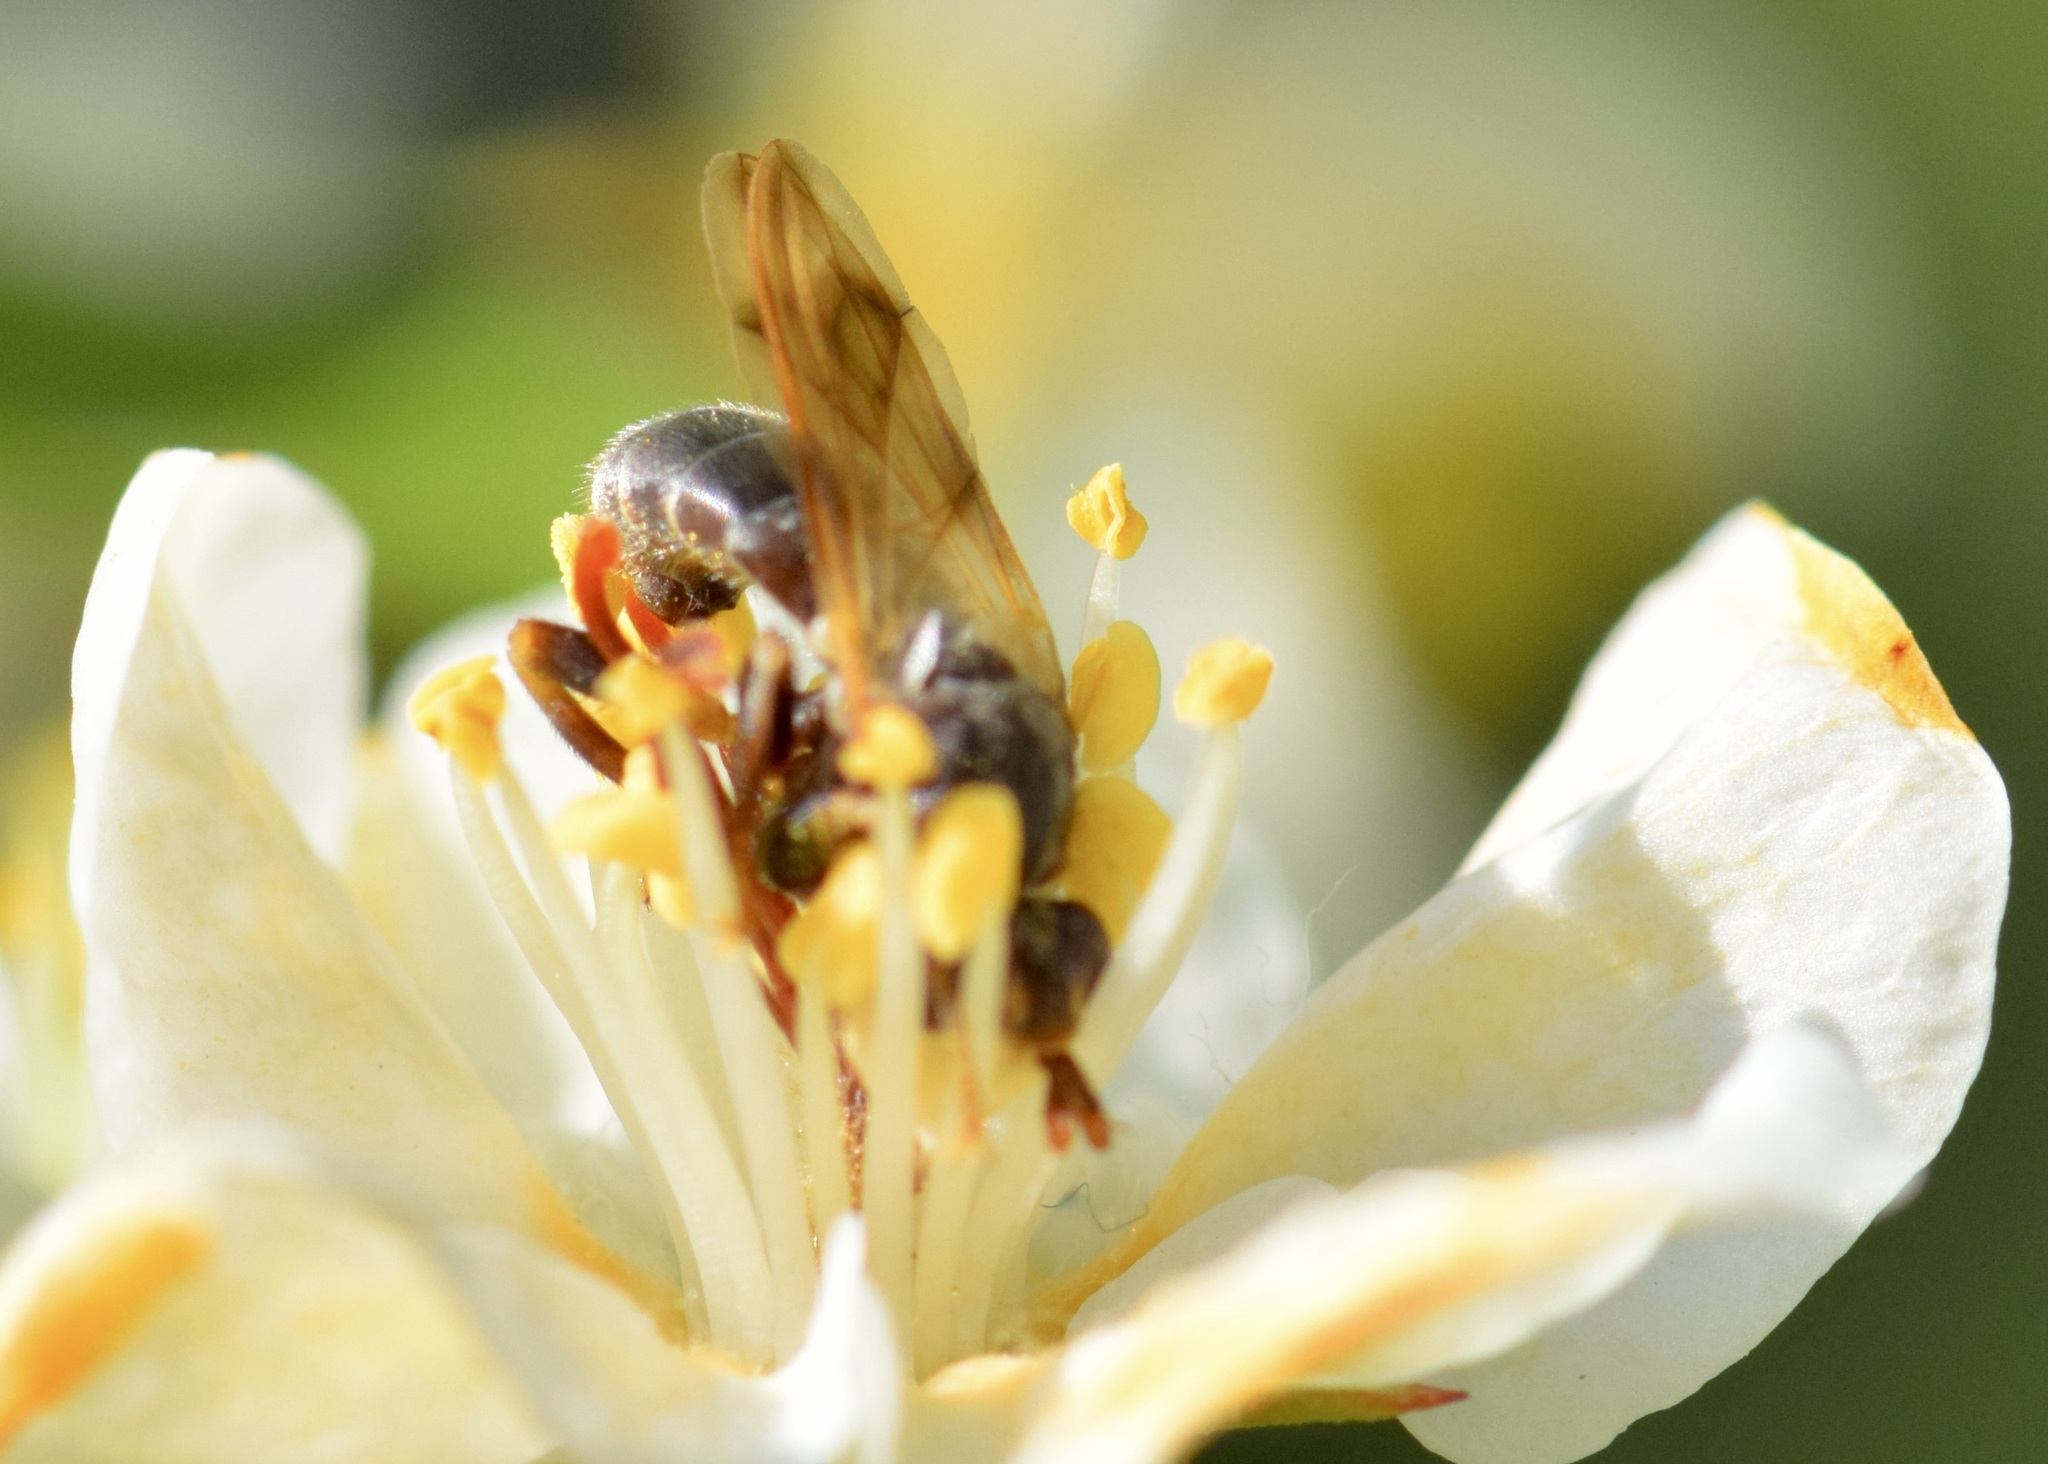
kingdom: Animalia
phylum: Arthropoda
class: Insecta
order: Diptera
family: Conopidae
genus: Myopa
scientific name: Myopa clausa
